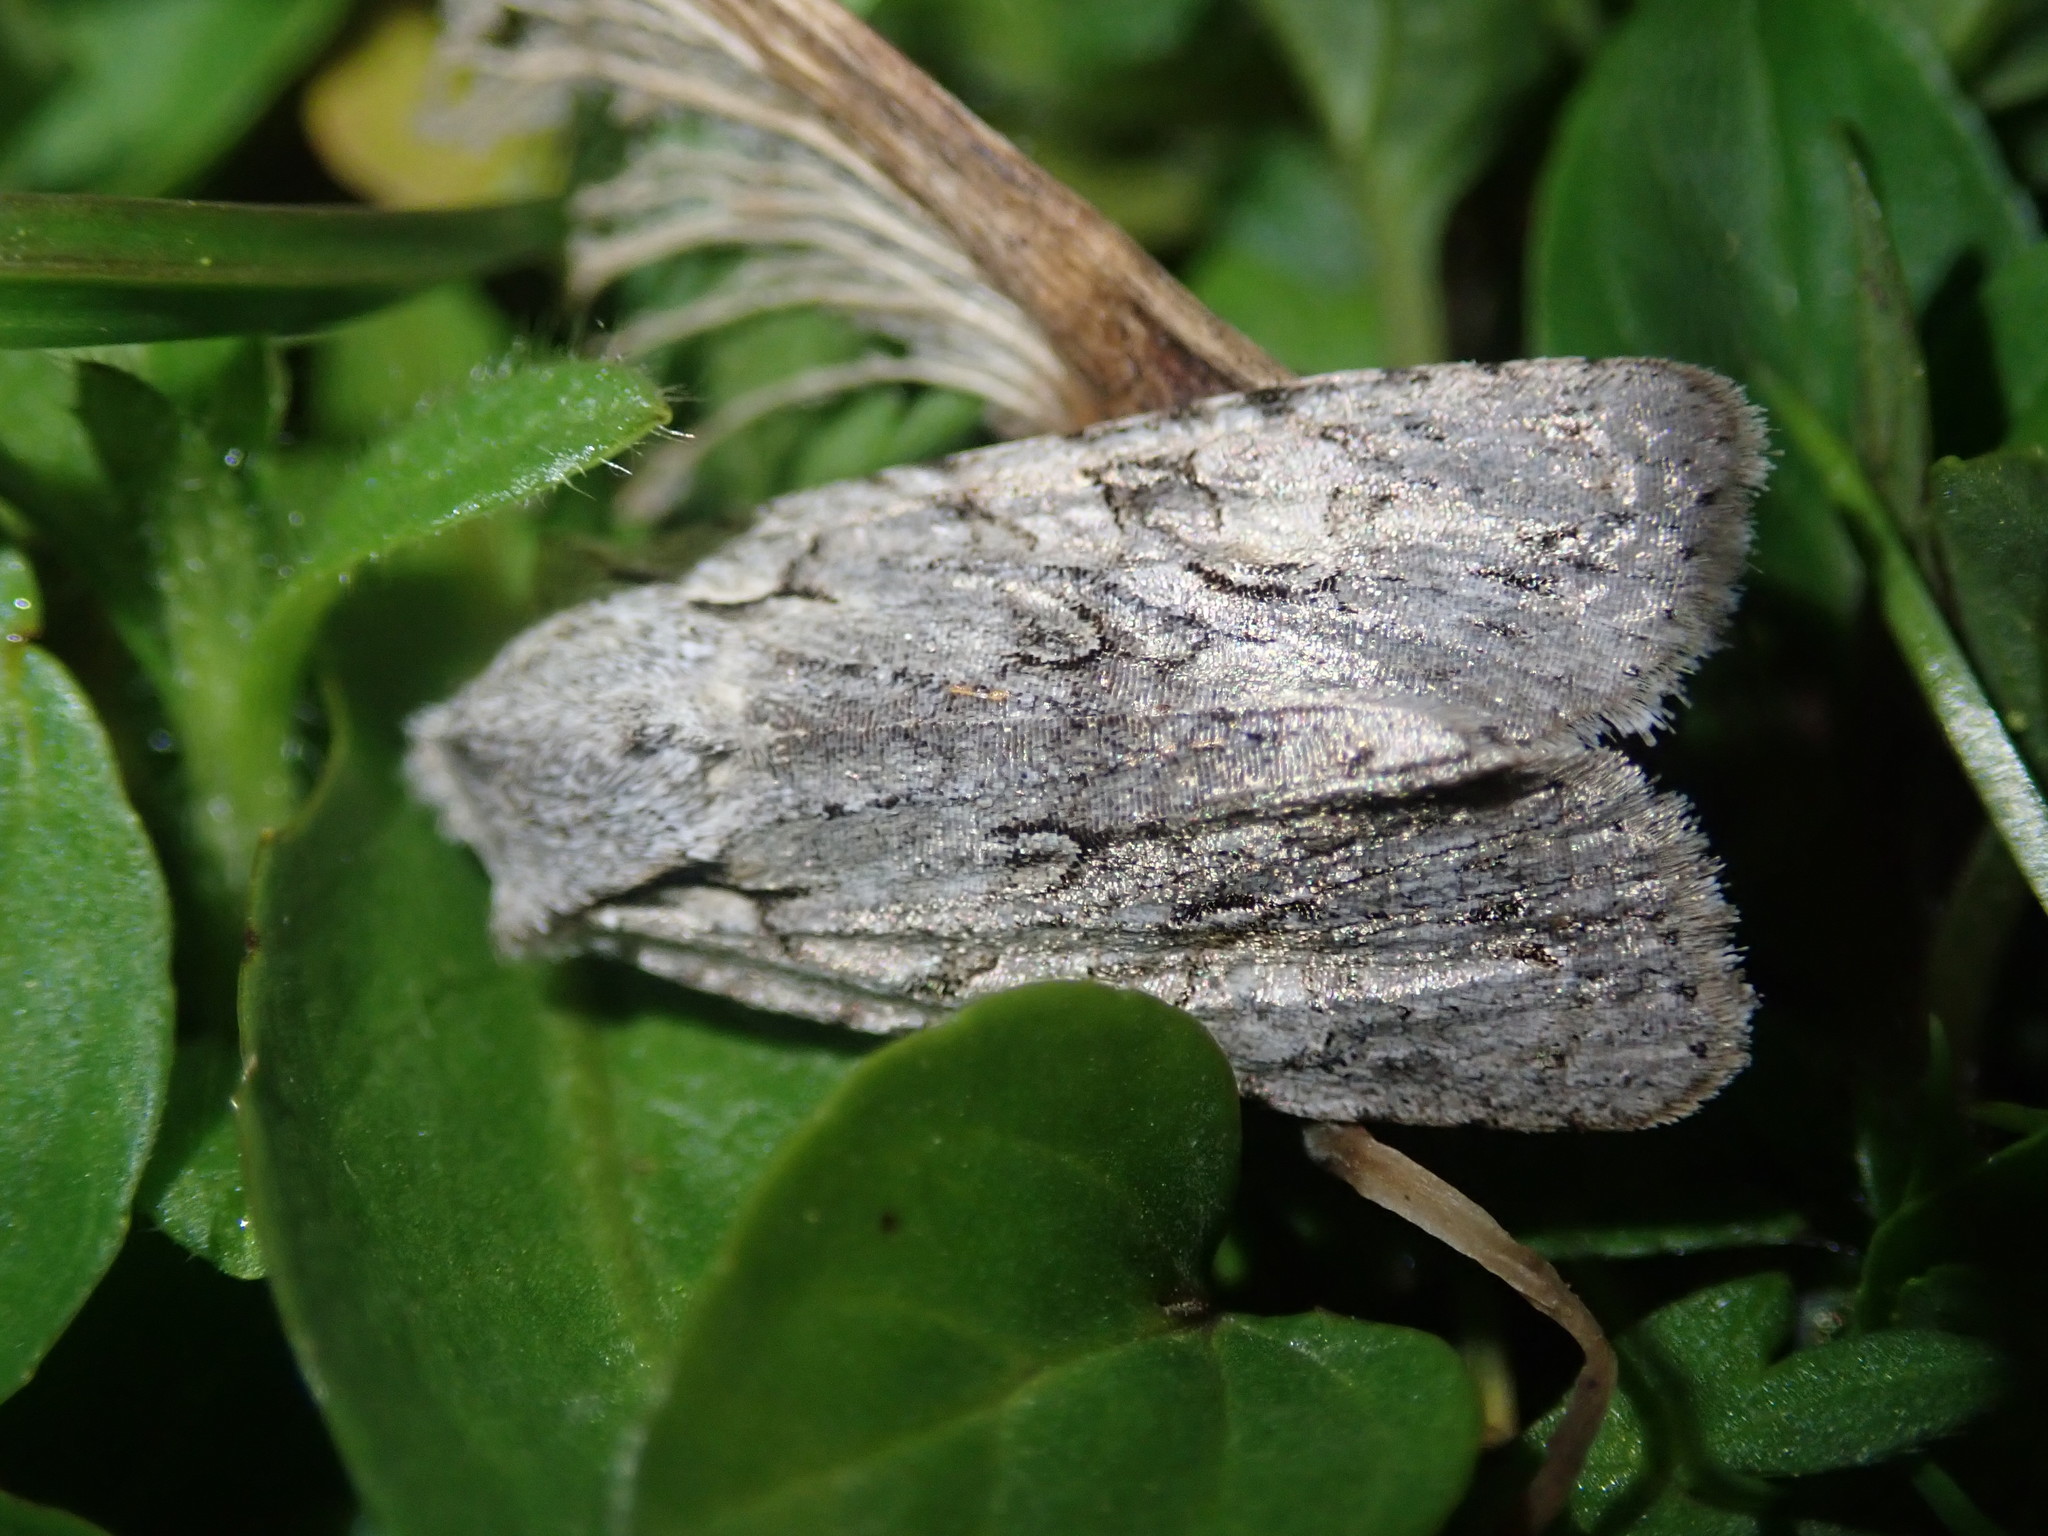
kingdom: Animalia
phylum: Arthropoda
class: Insecta
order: Lepidoptera
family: Noctuidae
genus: Lithophane
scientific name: Lithophane ornitopus
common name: Grey shoulder-knot
